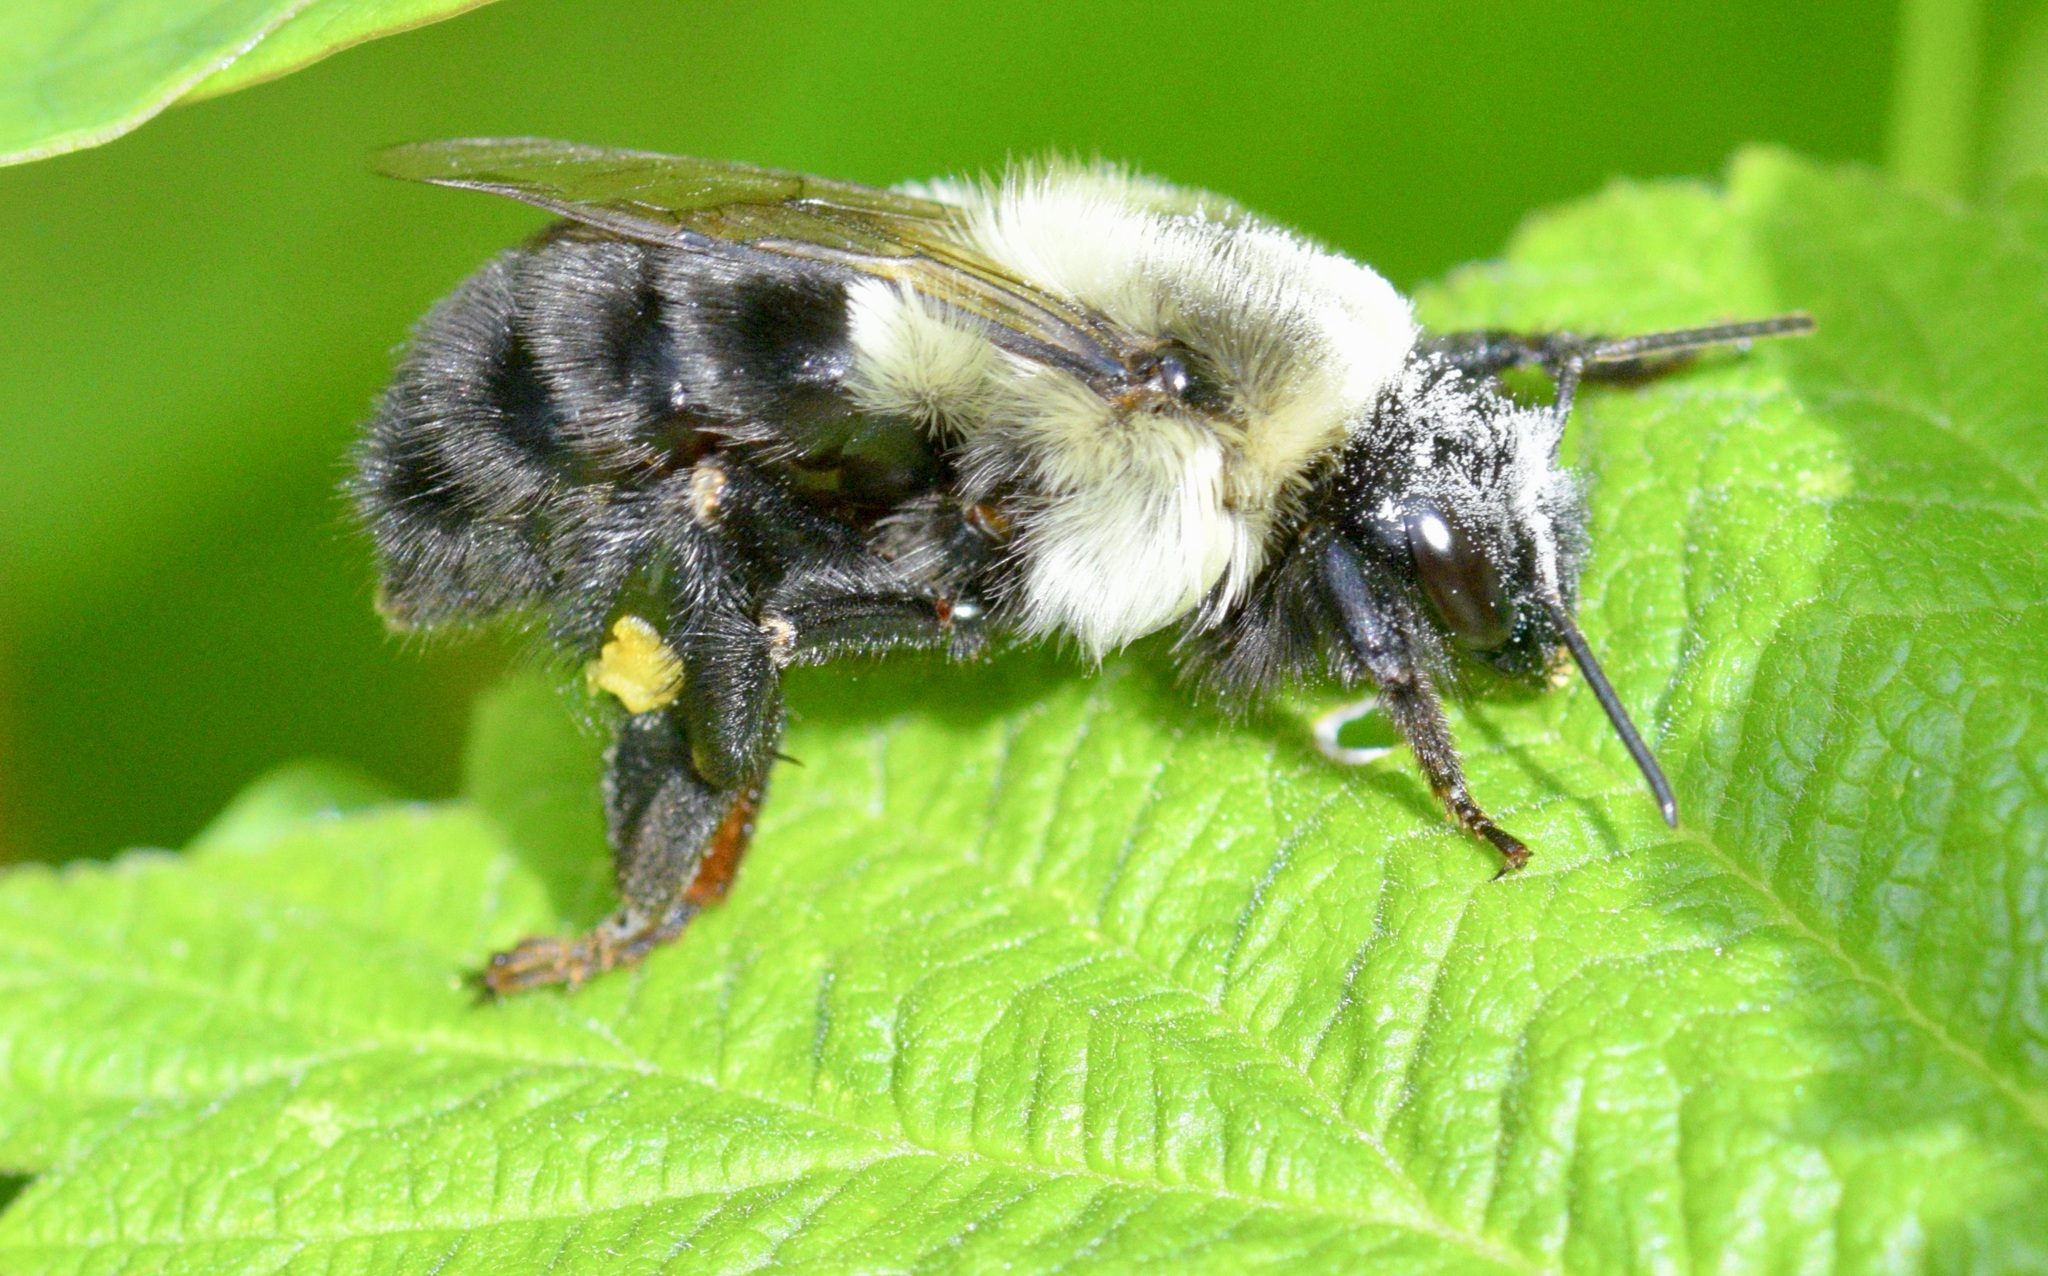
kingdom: Animalia
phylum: Arthropoda
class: Insecta
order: Hymenoptera
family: Apidae
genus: Bombus
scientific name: Bombus impatiens
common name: Common eastern bumble bee
